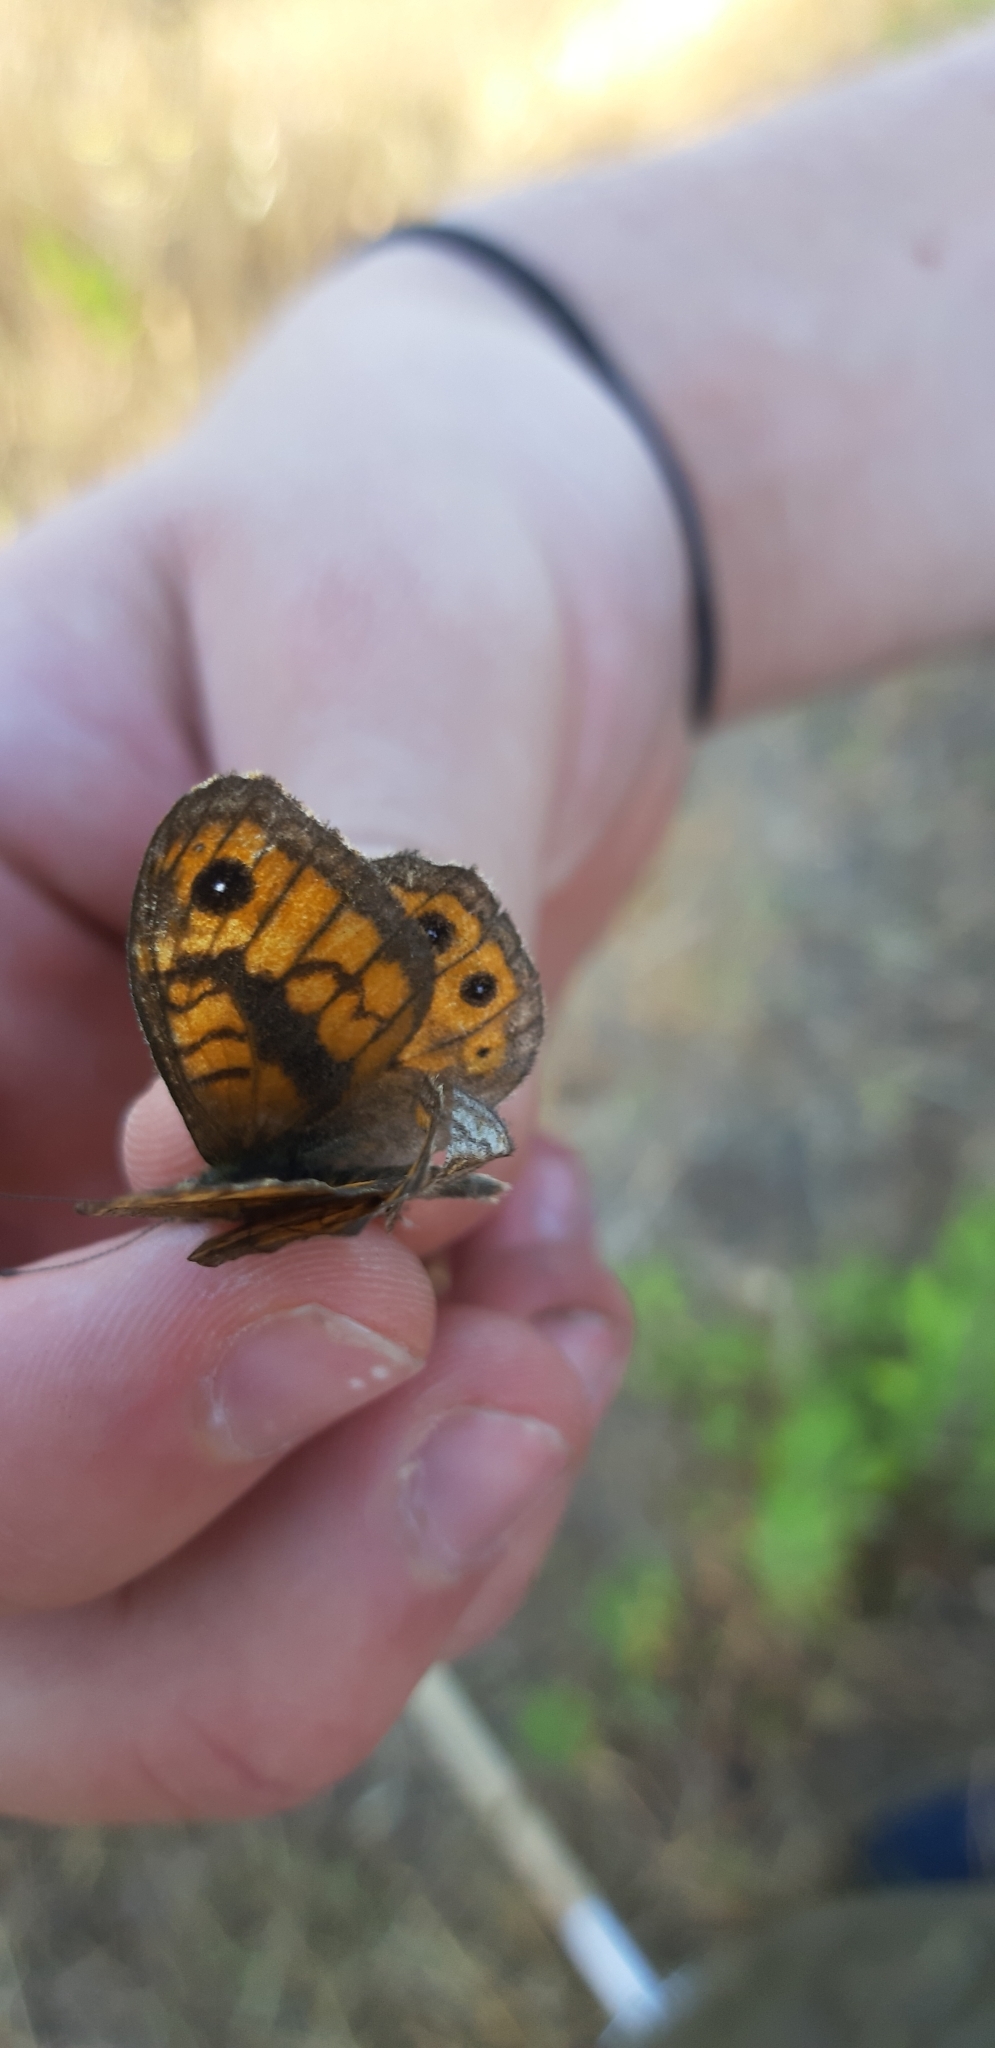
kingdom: Animalia
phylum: Arthropoda
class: Insecta
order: Lepidoptera
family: Nymphalidae
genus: Pararge
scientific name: Pararge Lasiommata megera
